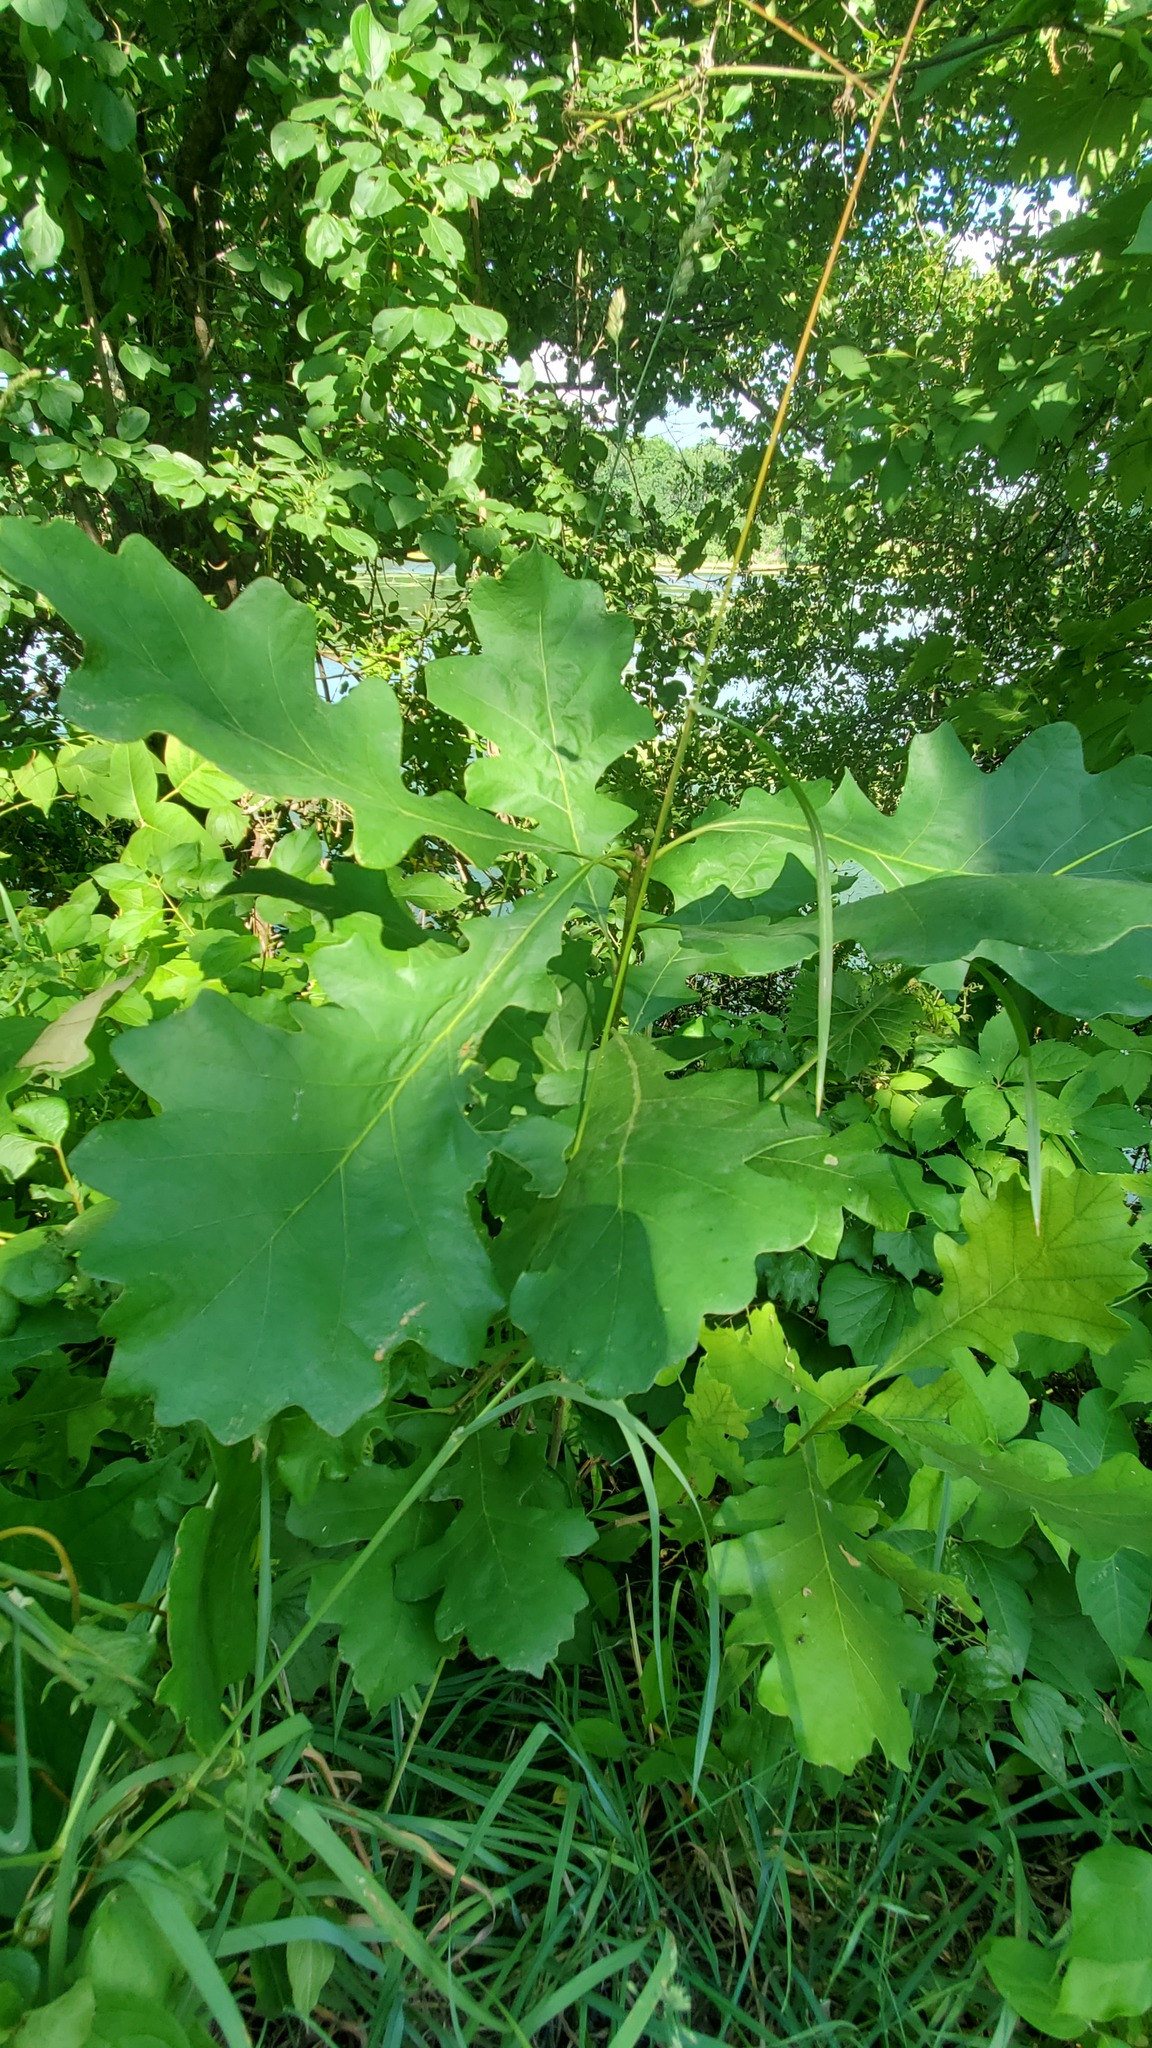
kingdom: Plantae
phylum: Tracheophyta
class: Magnoliopsida
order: Fagales
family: Fagaceae
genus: Quercus
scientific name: Quercus macrocarpa
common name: Bur oak
